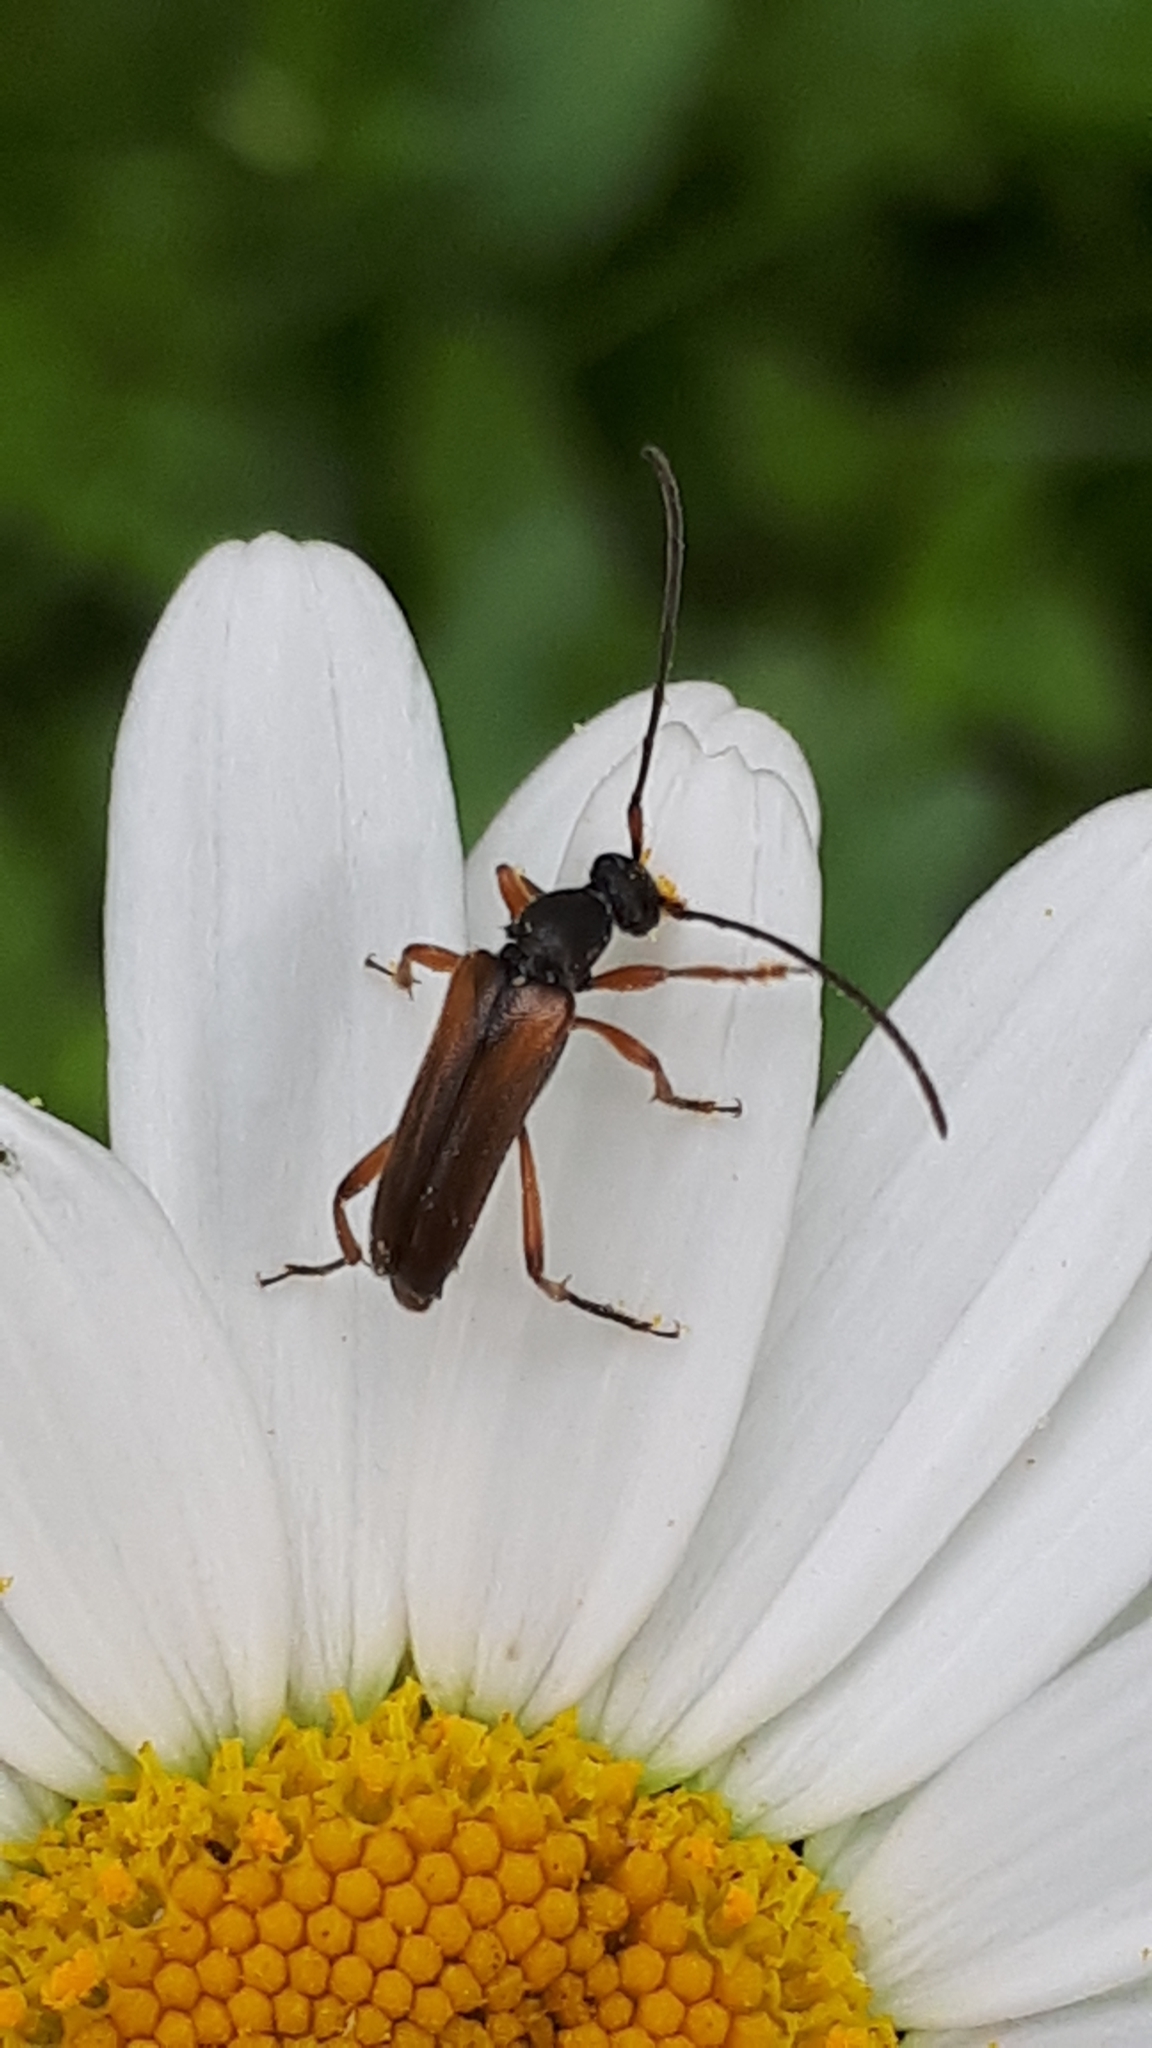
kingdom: Animalia
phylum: Arthropoda
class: Insecta
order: Coleoptera
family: Cerambycidae
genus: Alosterna
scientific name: Alosterna tabacicolor
